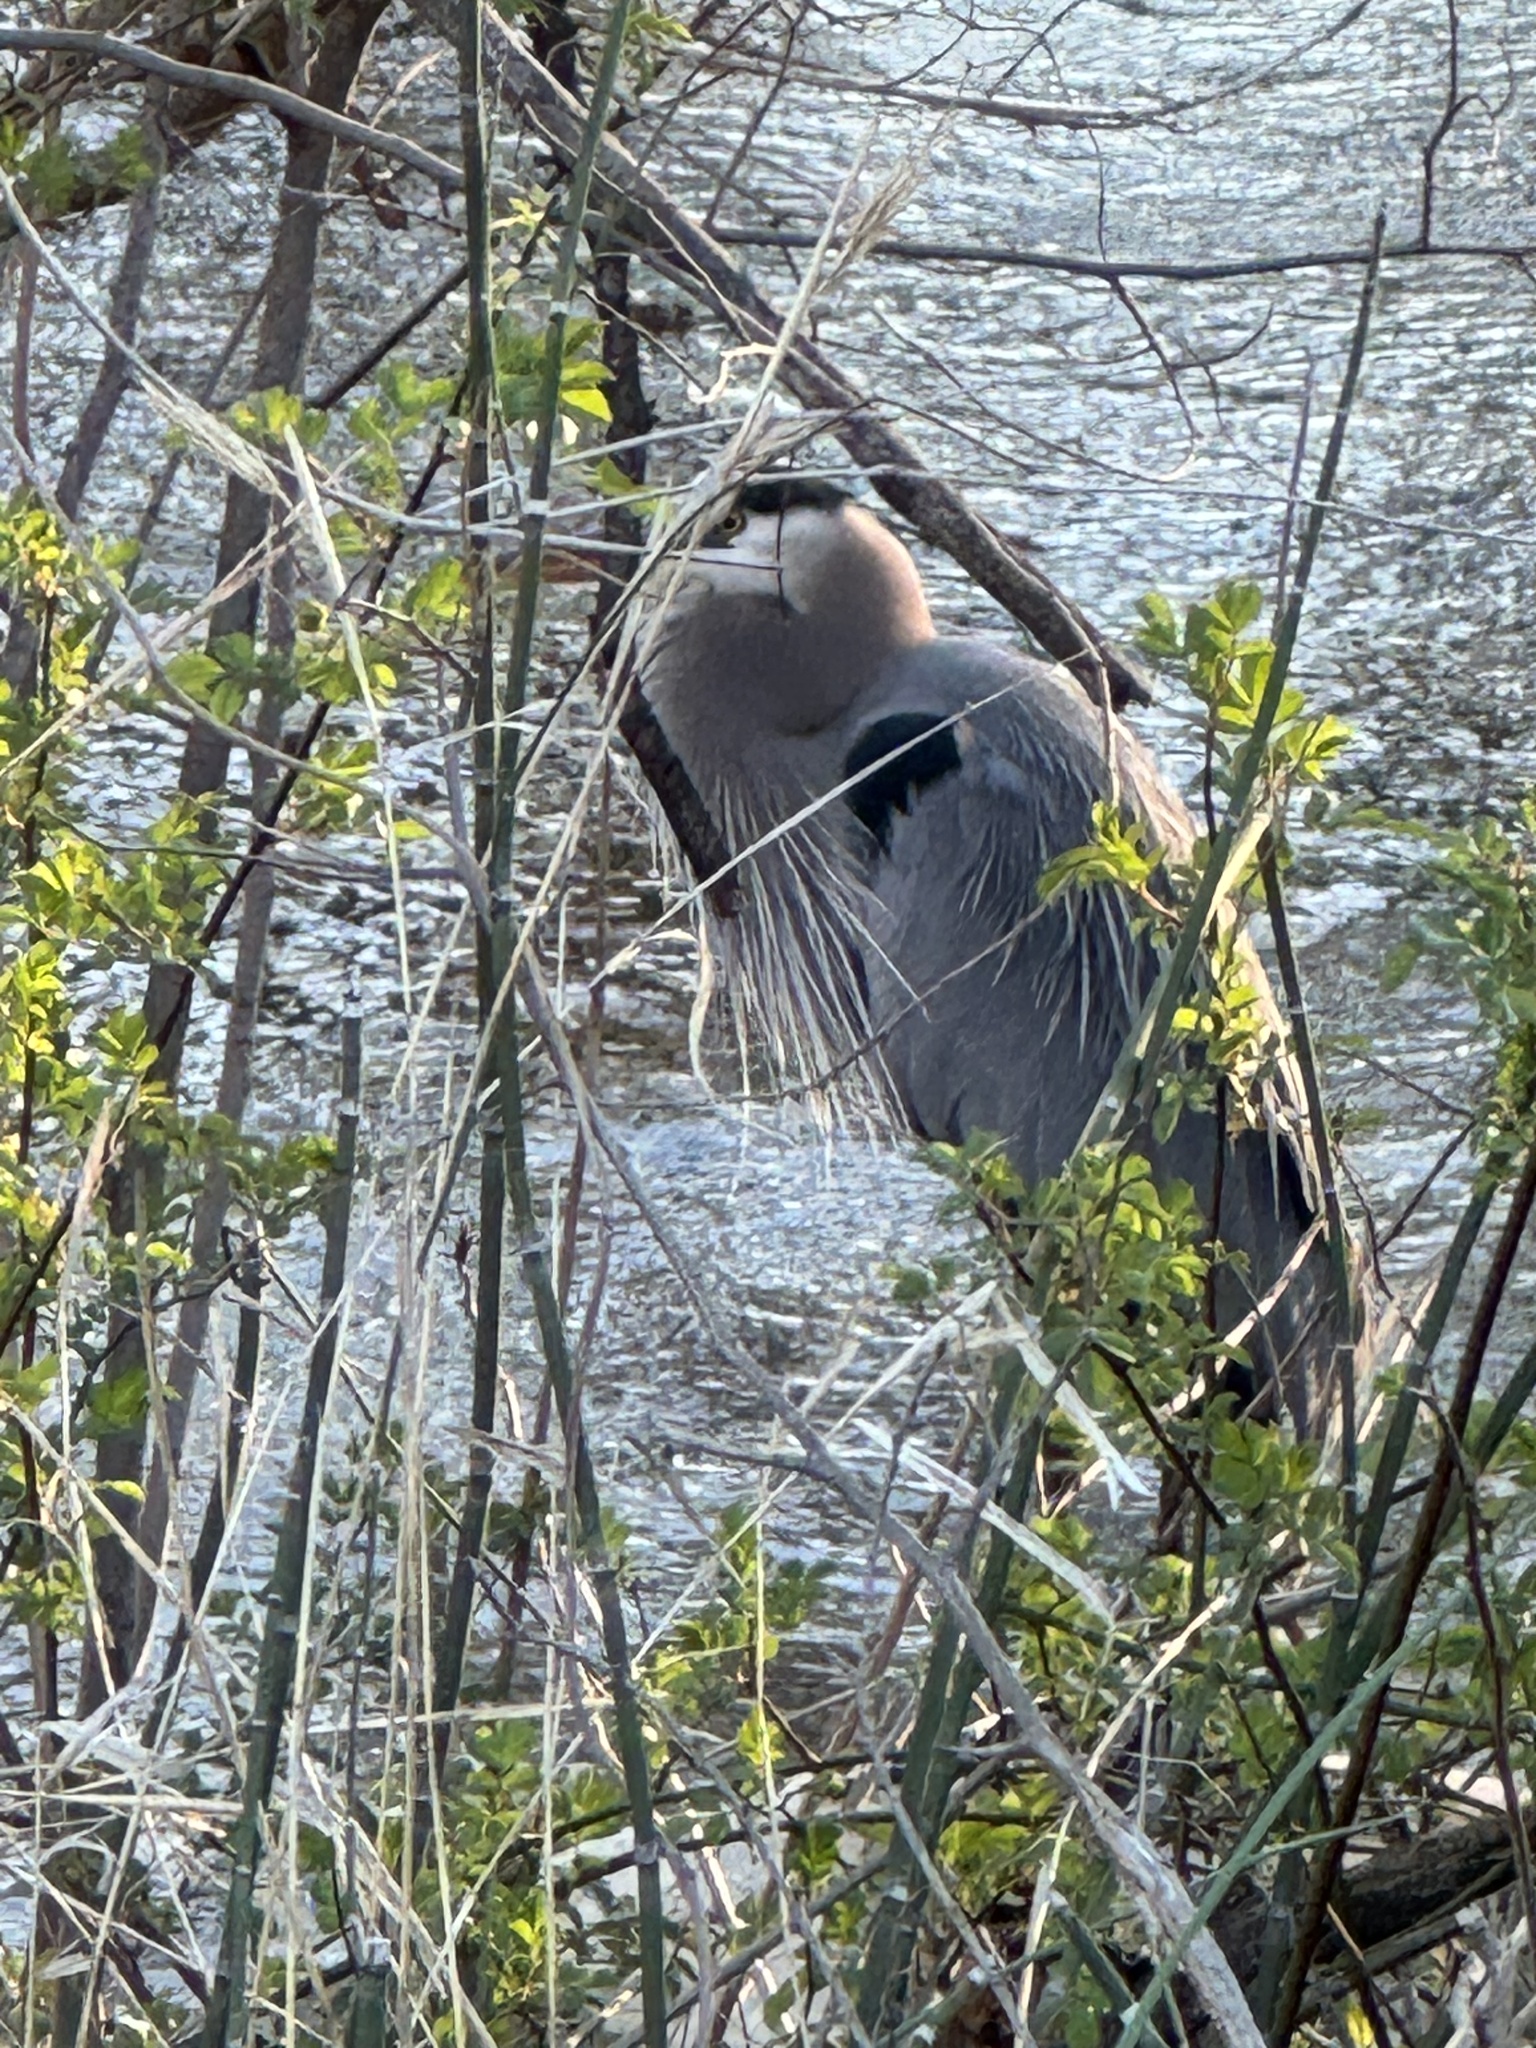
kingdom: Animalia
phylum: Chordata
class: Aves
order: Pelecaniformes
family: Ardeidae
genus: Ardea
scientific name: Ardea herodias
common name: Great blue heron
